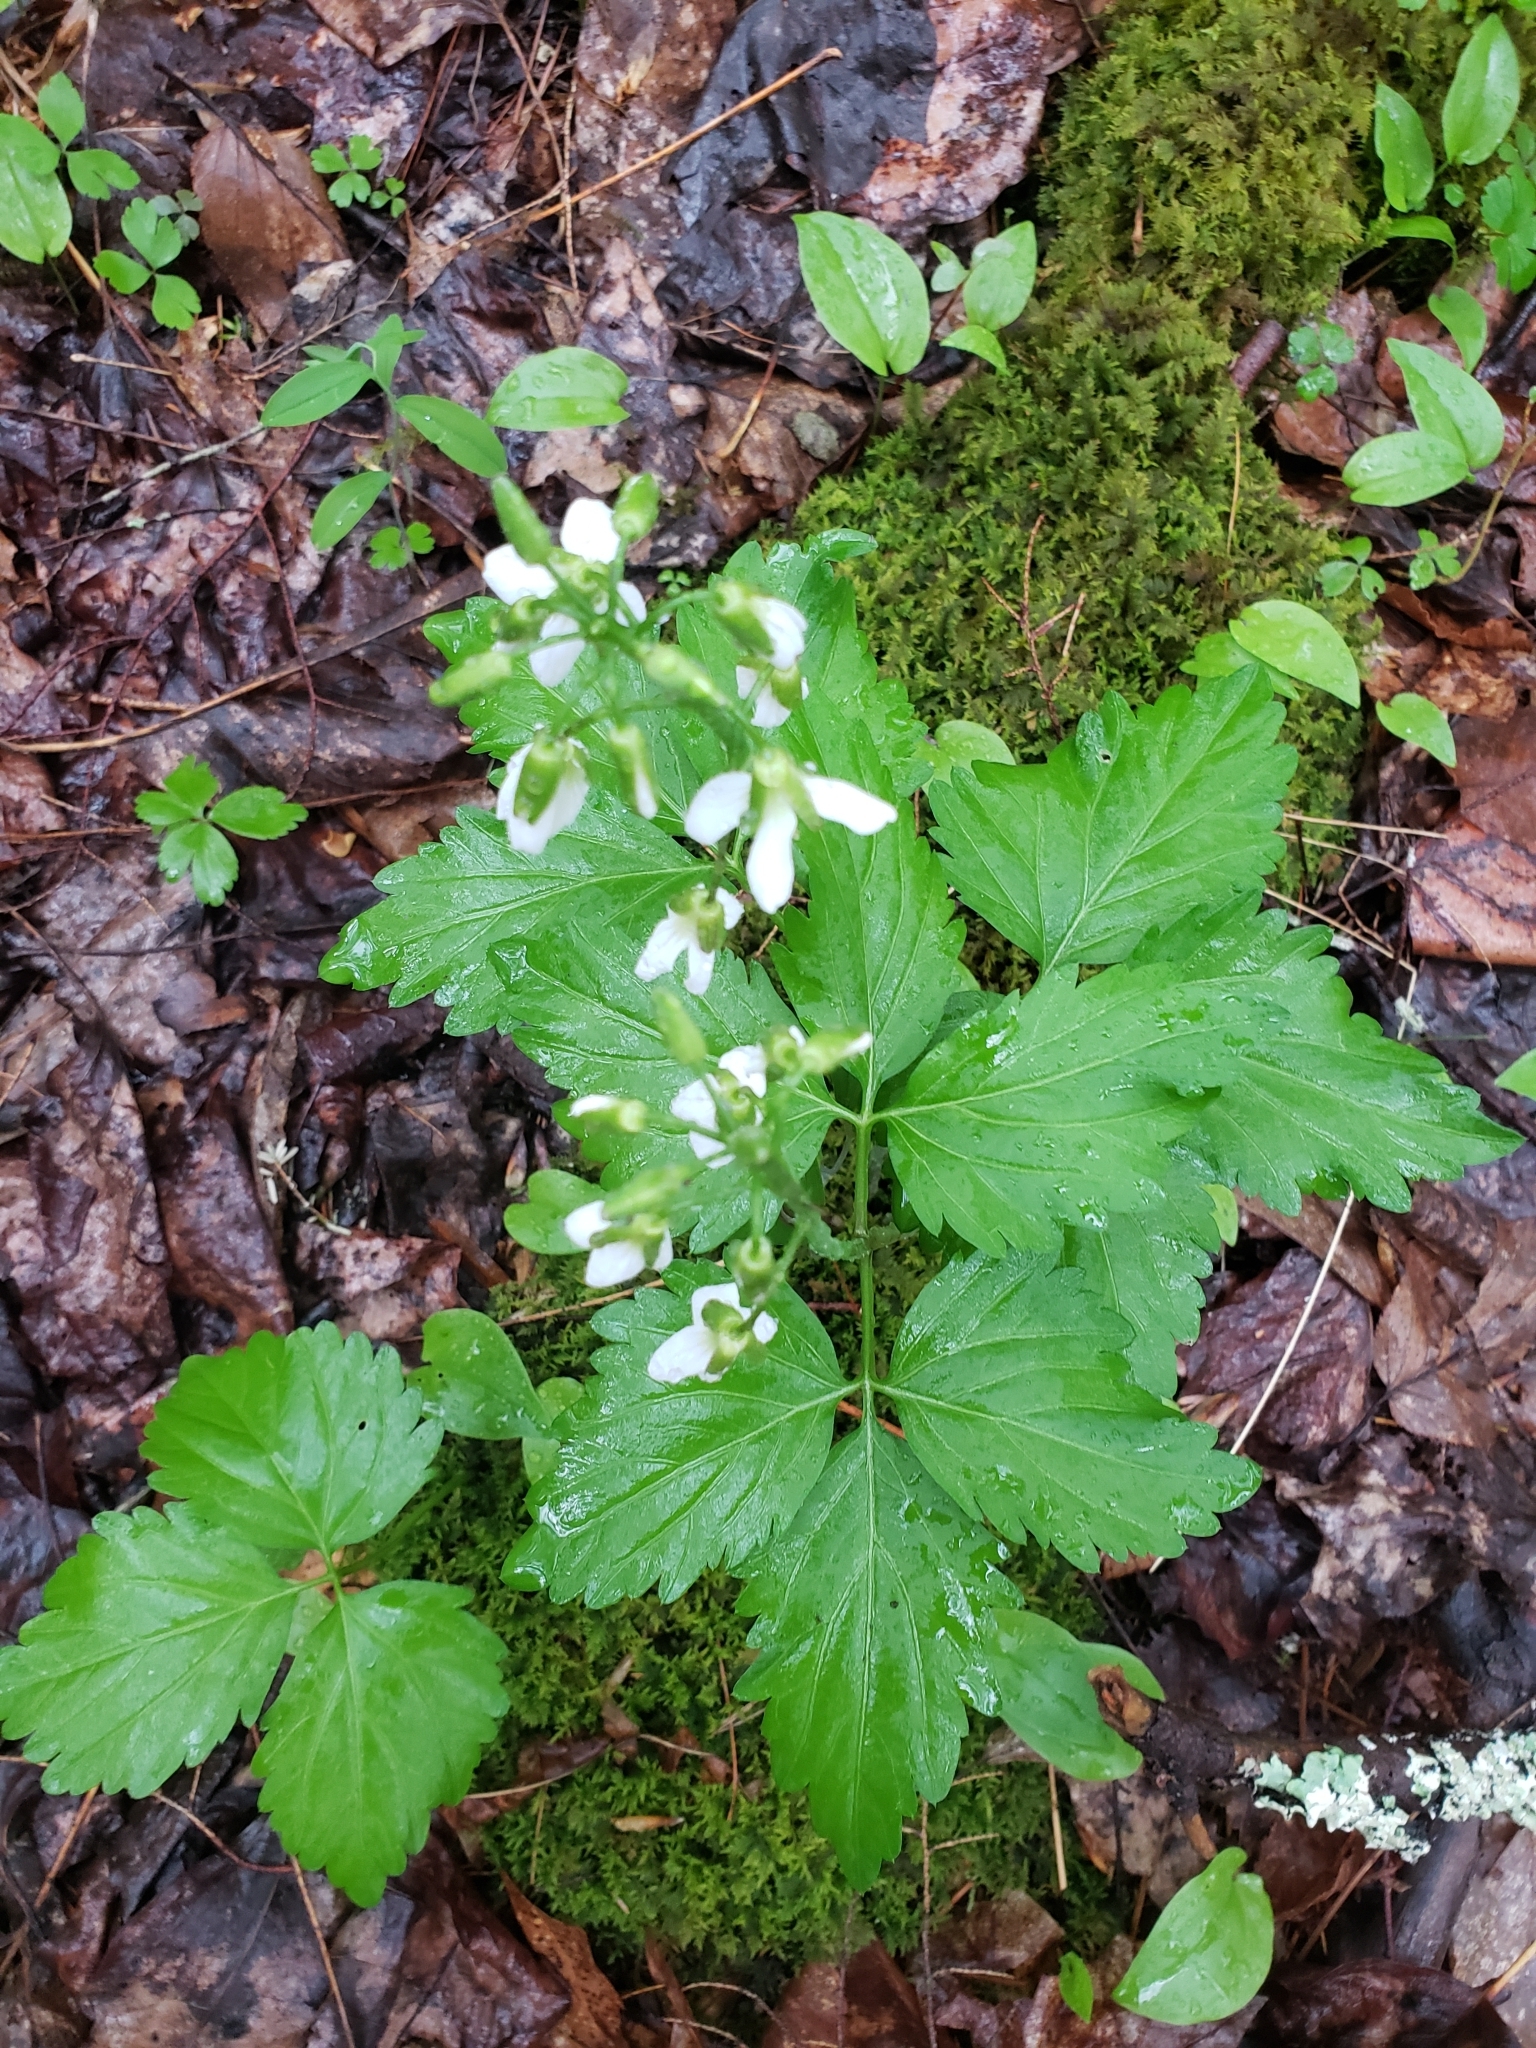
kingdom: Plantae
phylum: Tracheophyta
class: Magnoliopsida
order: Brassicales
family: Brassicaceae
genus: Cardamine
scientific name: Cardamine diphylla
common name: Broad-leaved toothwort
